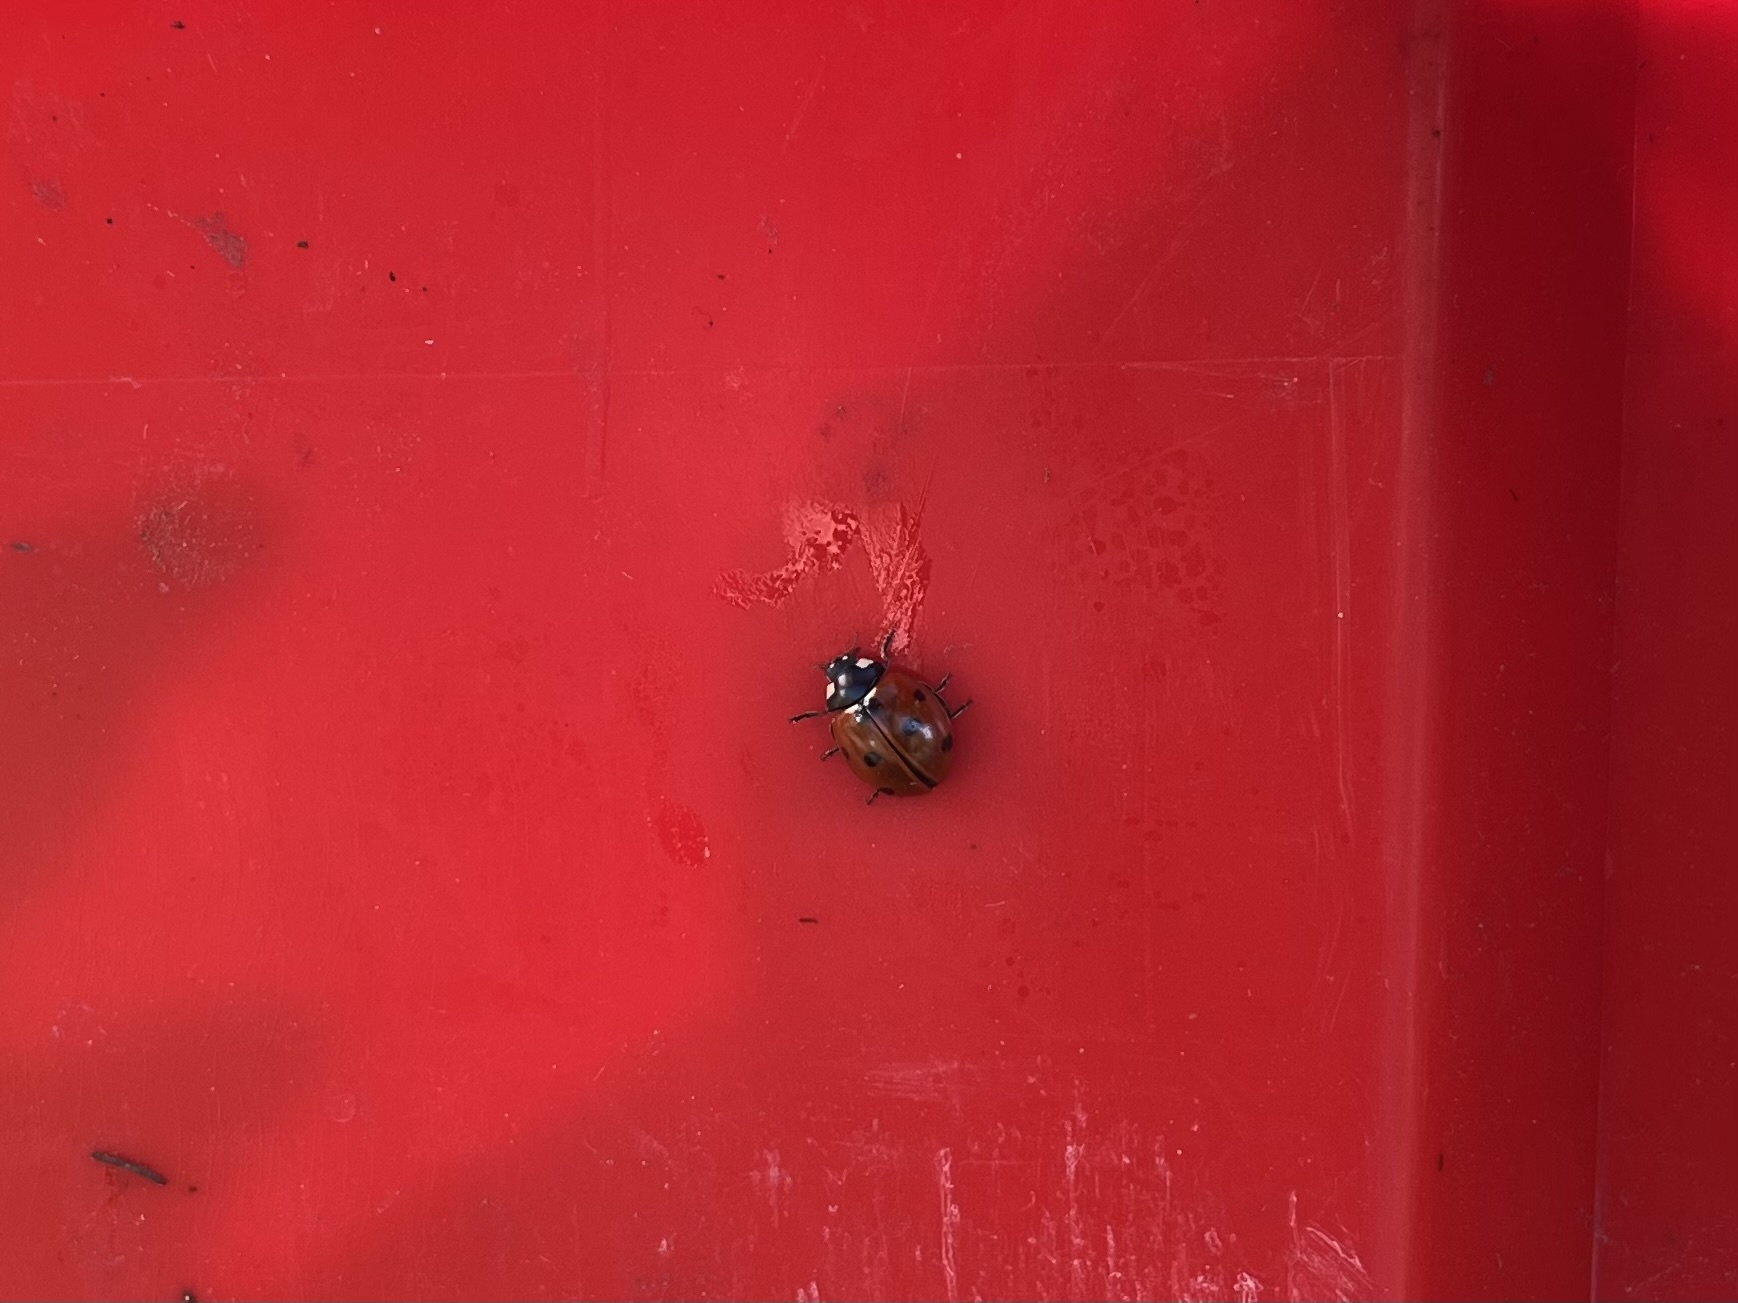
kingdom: Animalia
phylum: Arthropoda
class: Insecta
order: Coleoptera
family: Coccinellidae
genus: Coccinella
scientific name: Coccinella septempunctata
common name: Sevenspotted lady beetle
